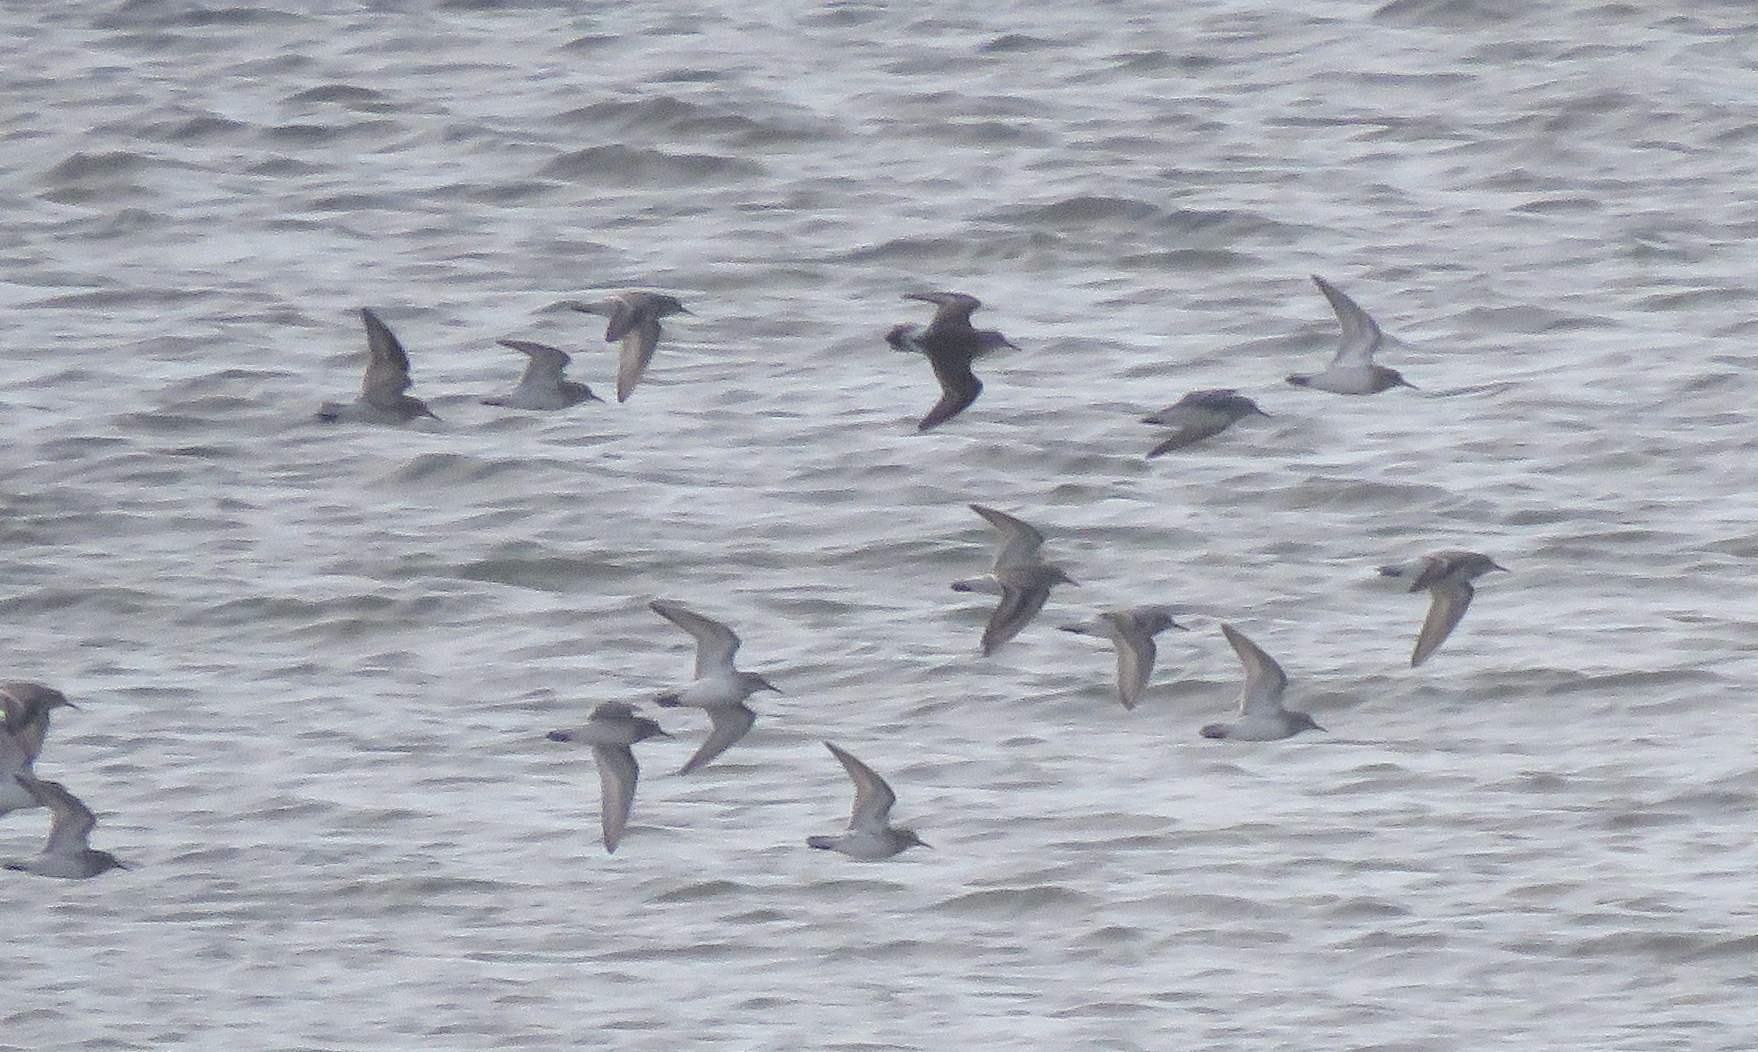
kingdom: Animalia
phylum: Chordata
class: Aves
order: Charadriiformes
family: Scolopacidae
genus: Calidris
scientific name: Calidris fuscicollis
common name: White-rumped sandpiper
